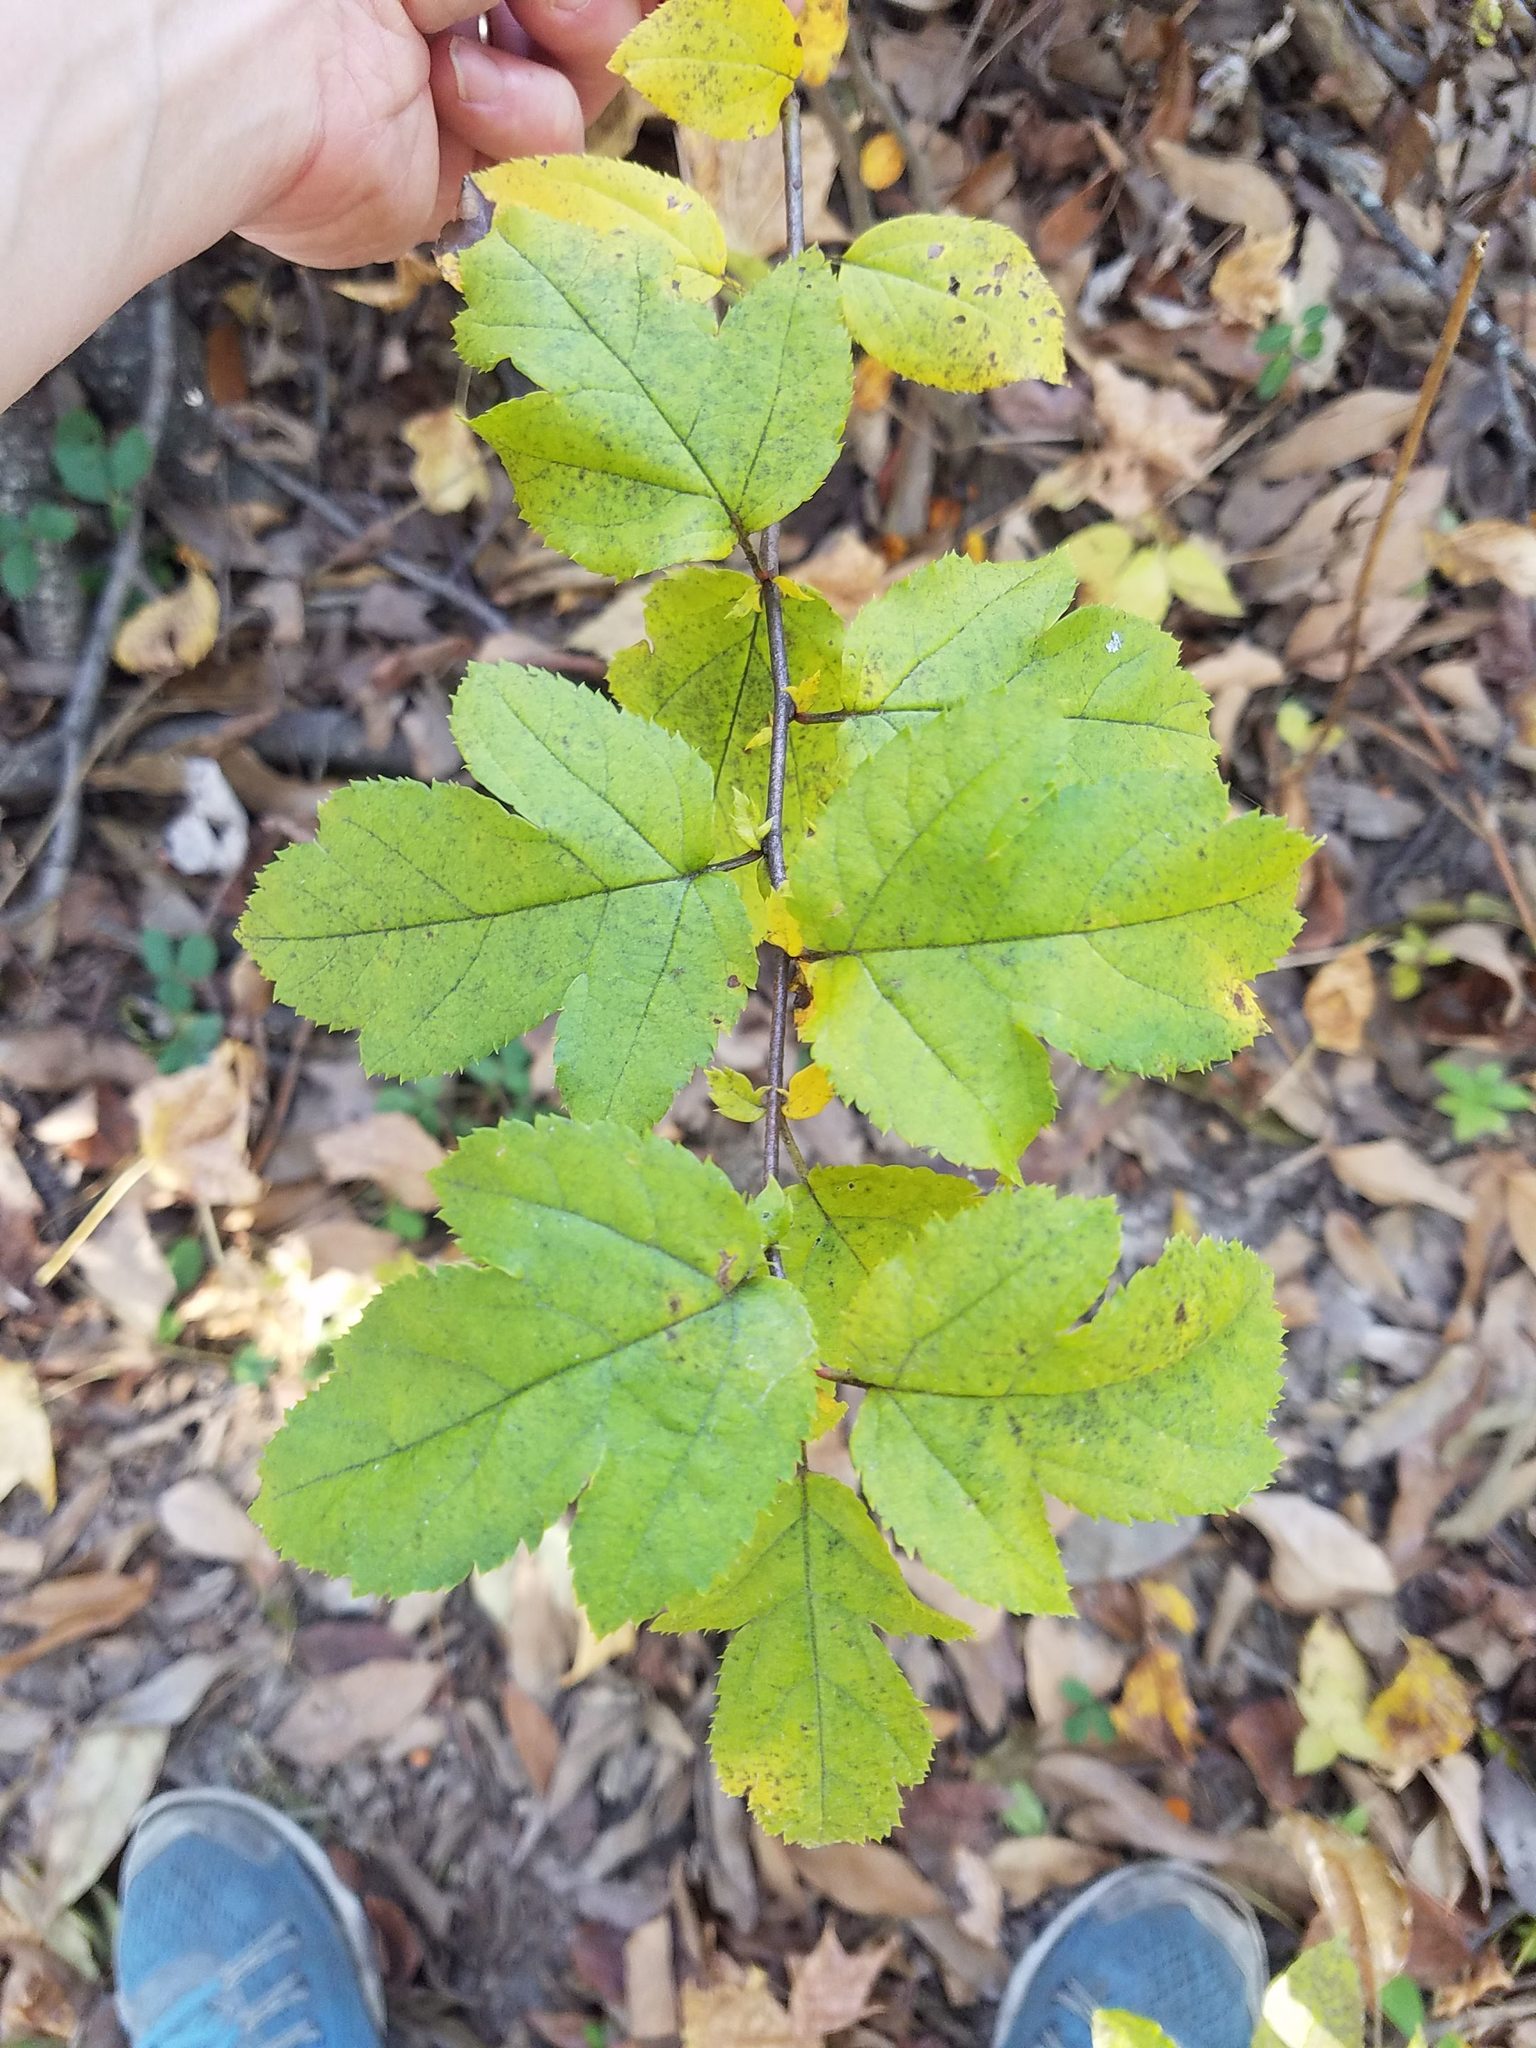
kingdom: Plantae
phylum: Tracheophyta
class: Magnoliopsida
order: Rosales
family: Rosaceae
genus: Malus
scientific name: Malus coronaria
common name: Sweet crab apple
